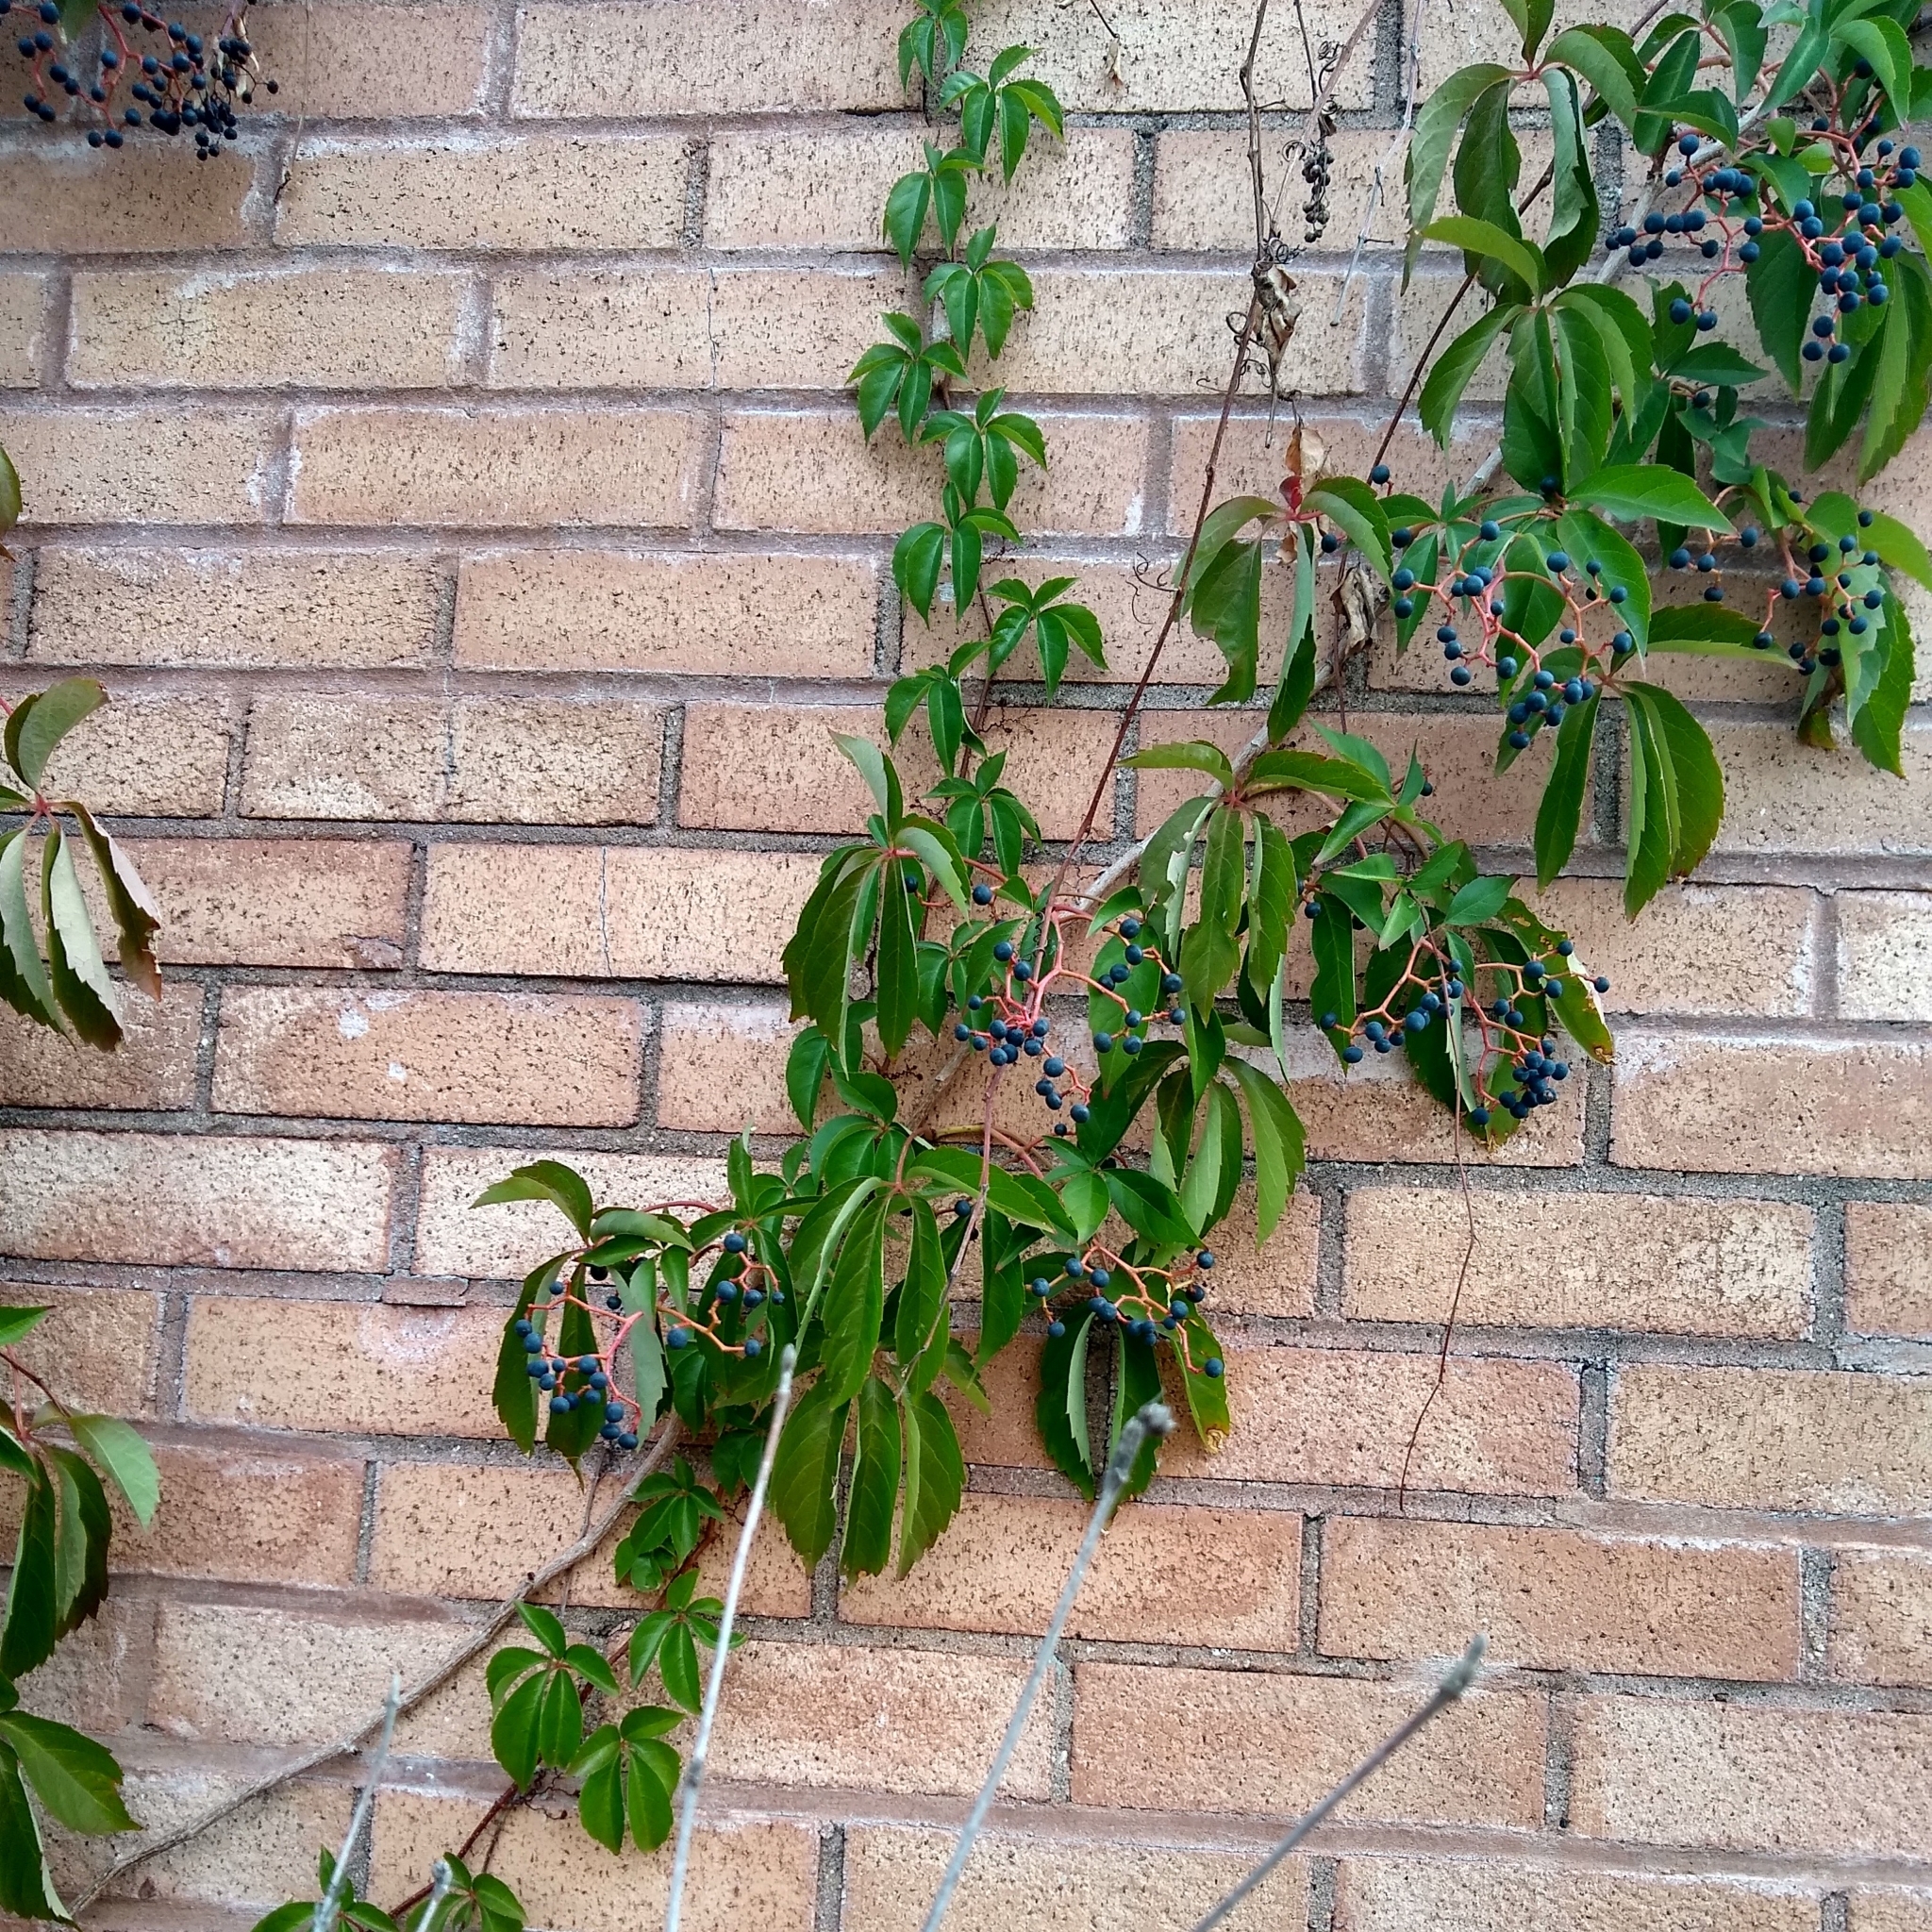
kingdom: Plantae
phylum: Tracheophyta
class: Magnoliopsida
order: Vitales
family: Vitaceae
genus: Parthenocissus
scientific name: Parthenocissus quinquefolia
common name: Virginia-creeper
